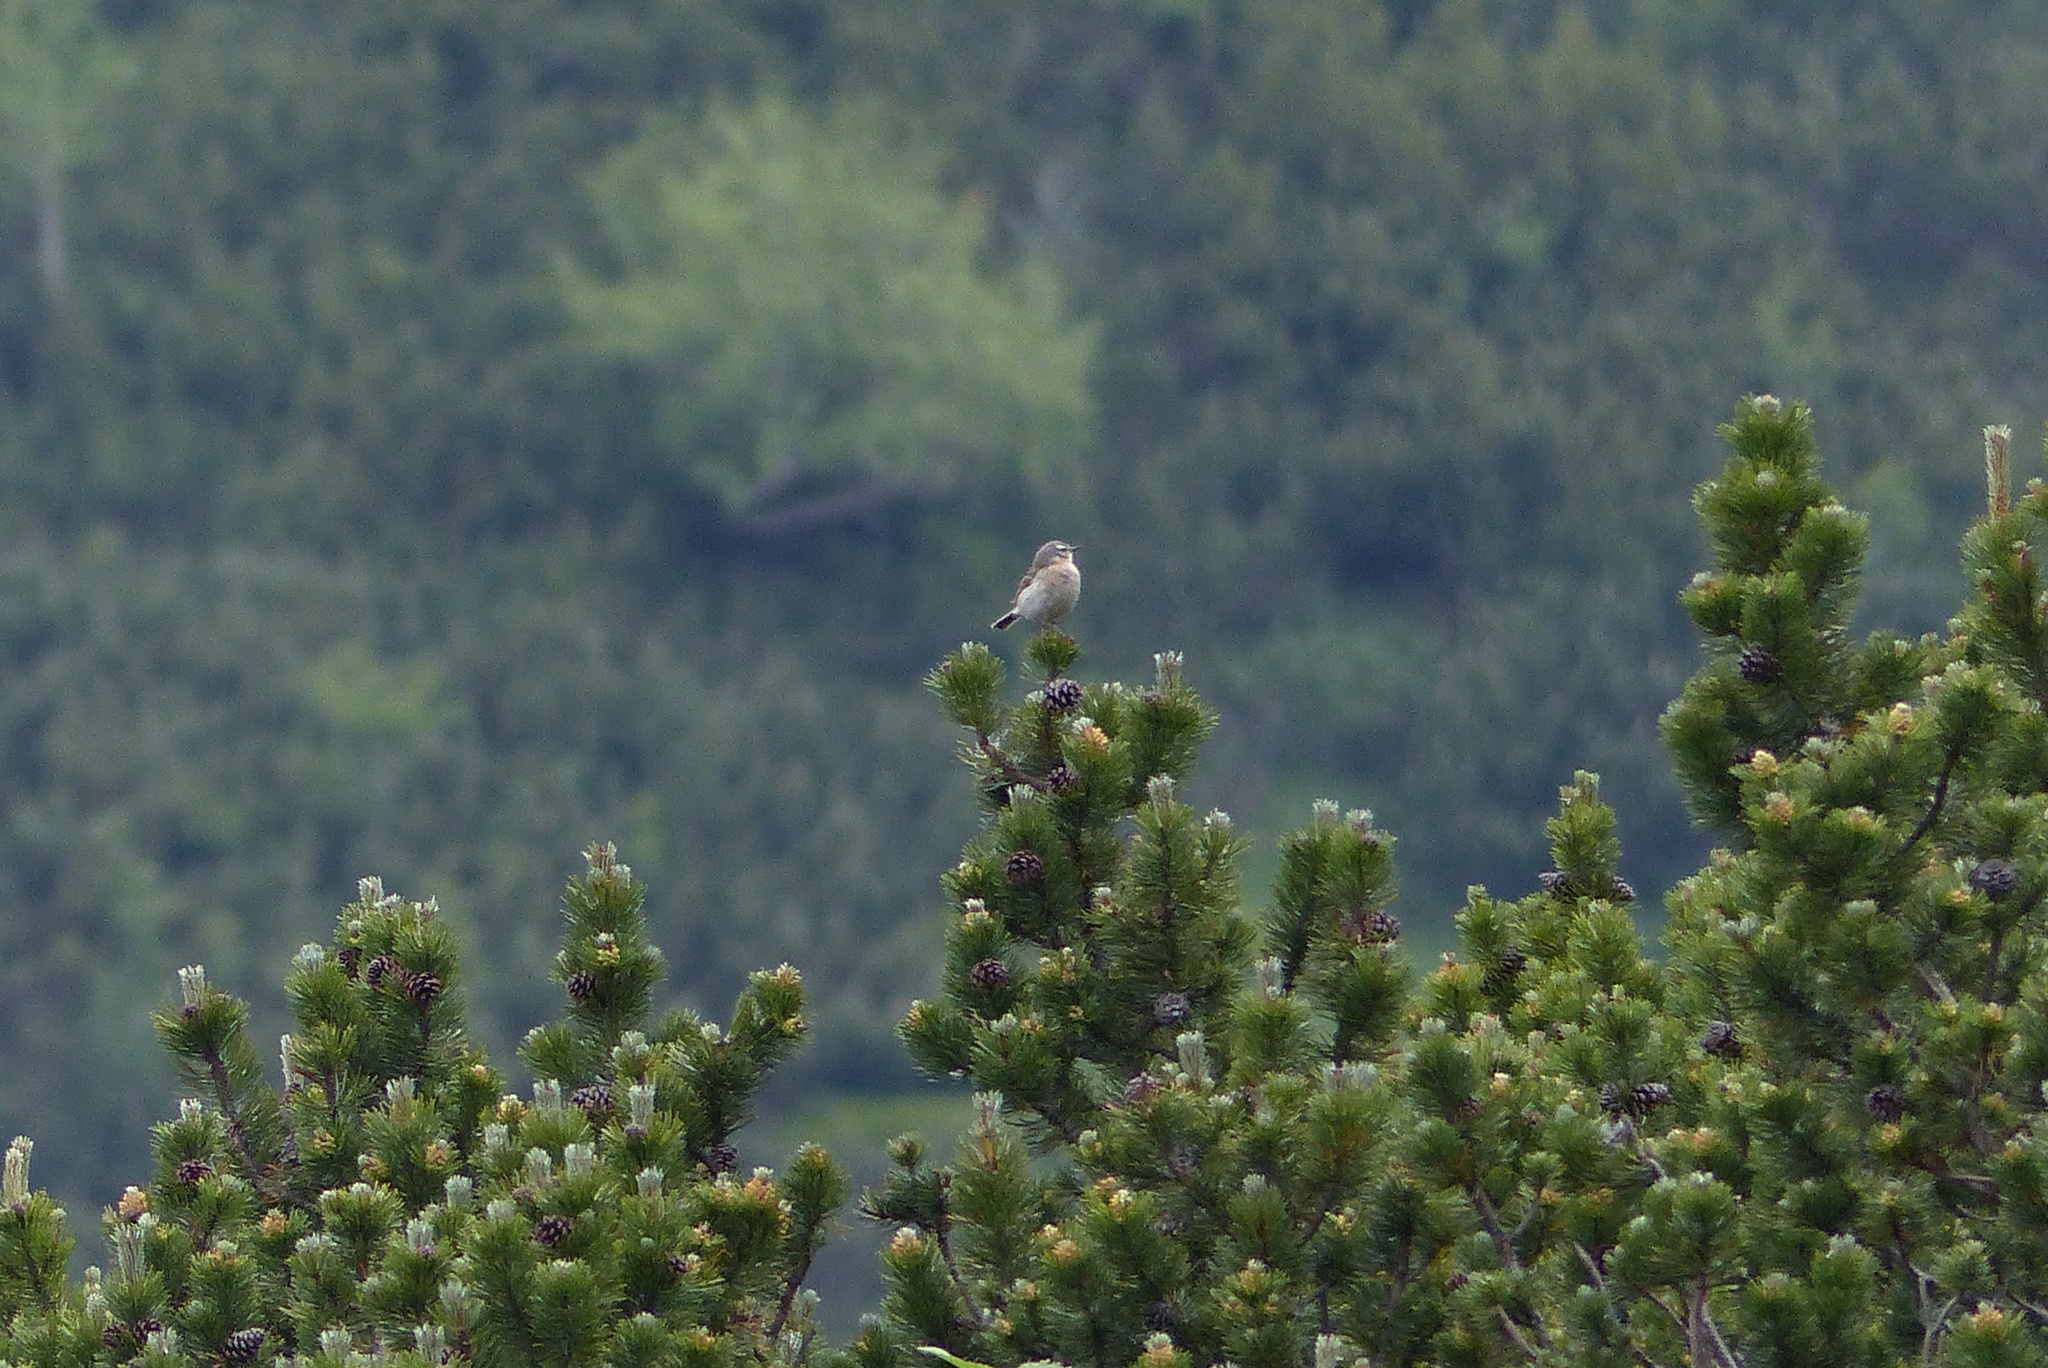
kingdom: Animalia
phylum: Chordata
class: Aves
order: Passeriformes
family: Motacillidae
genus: Anthus
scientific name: Anthus spinoletta
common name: Water pipit
